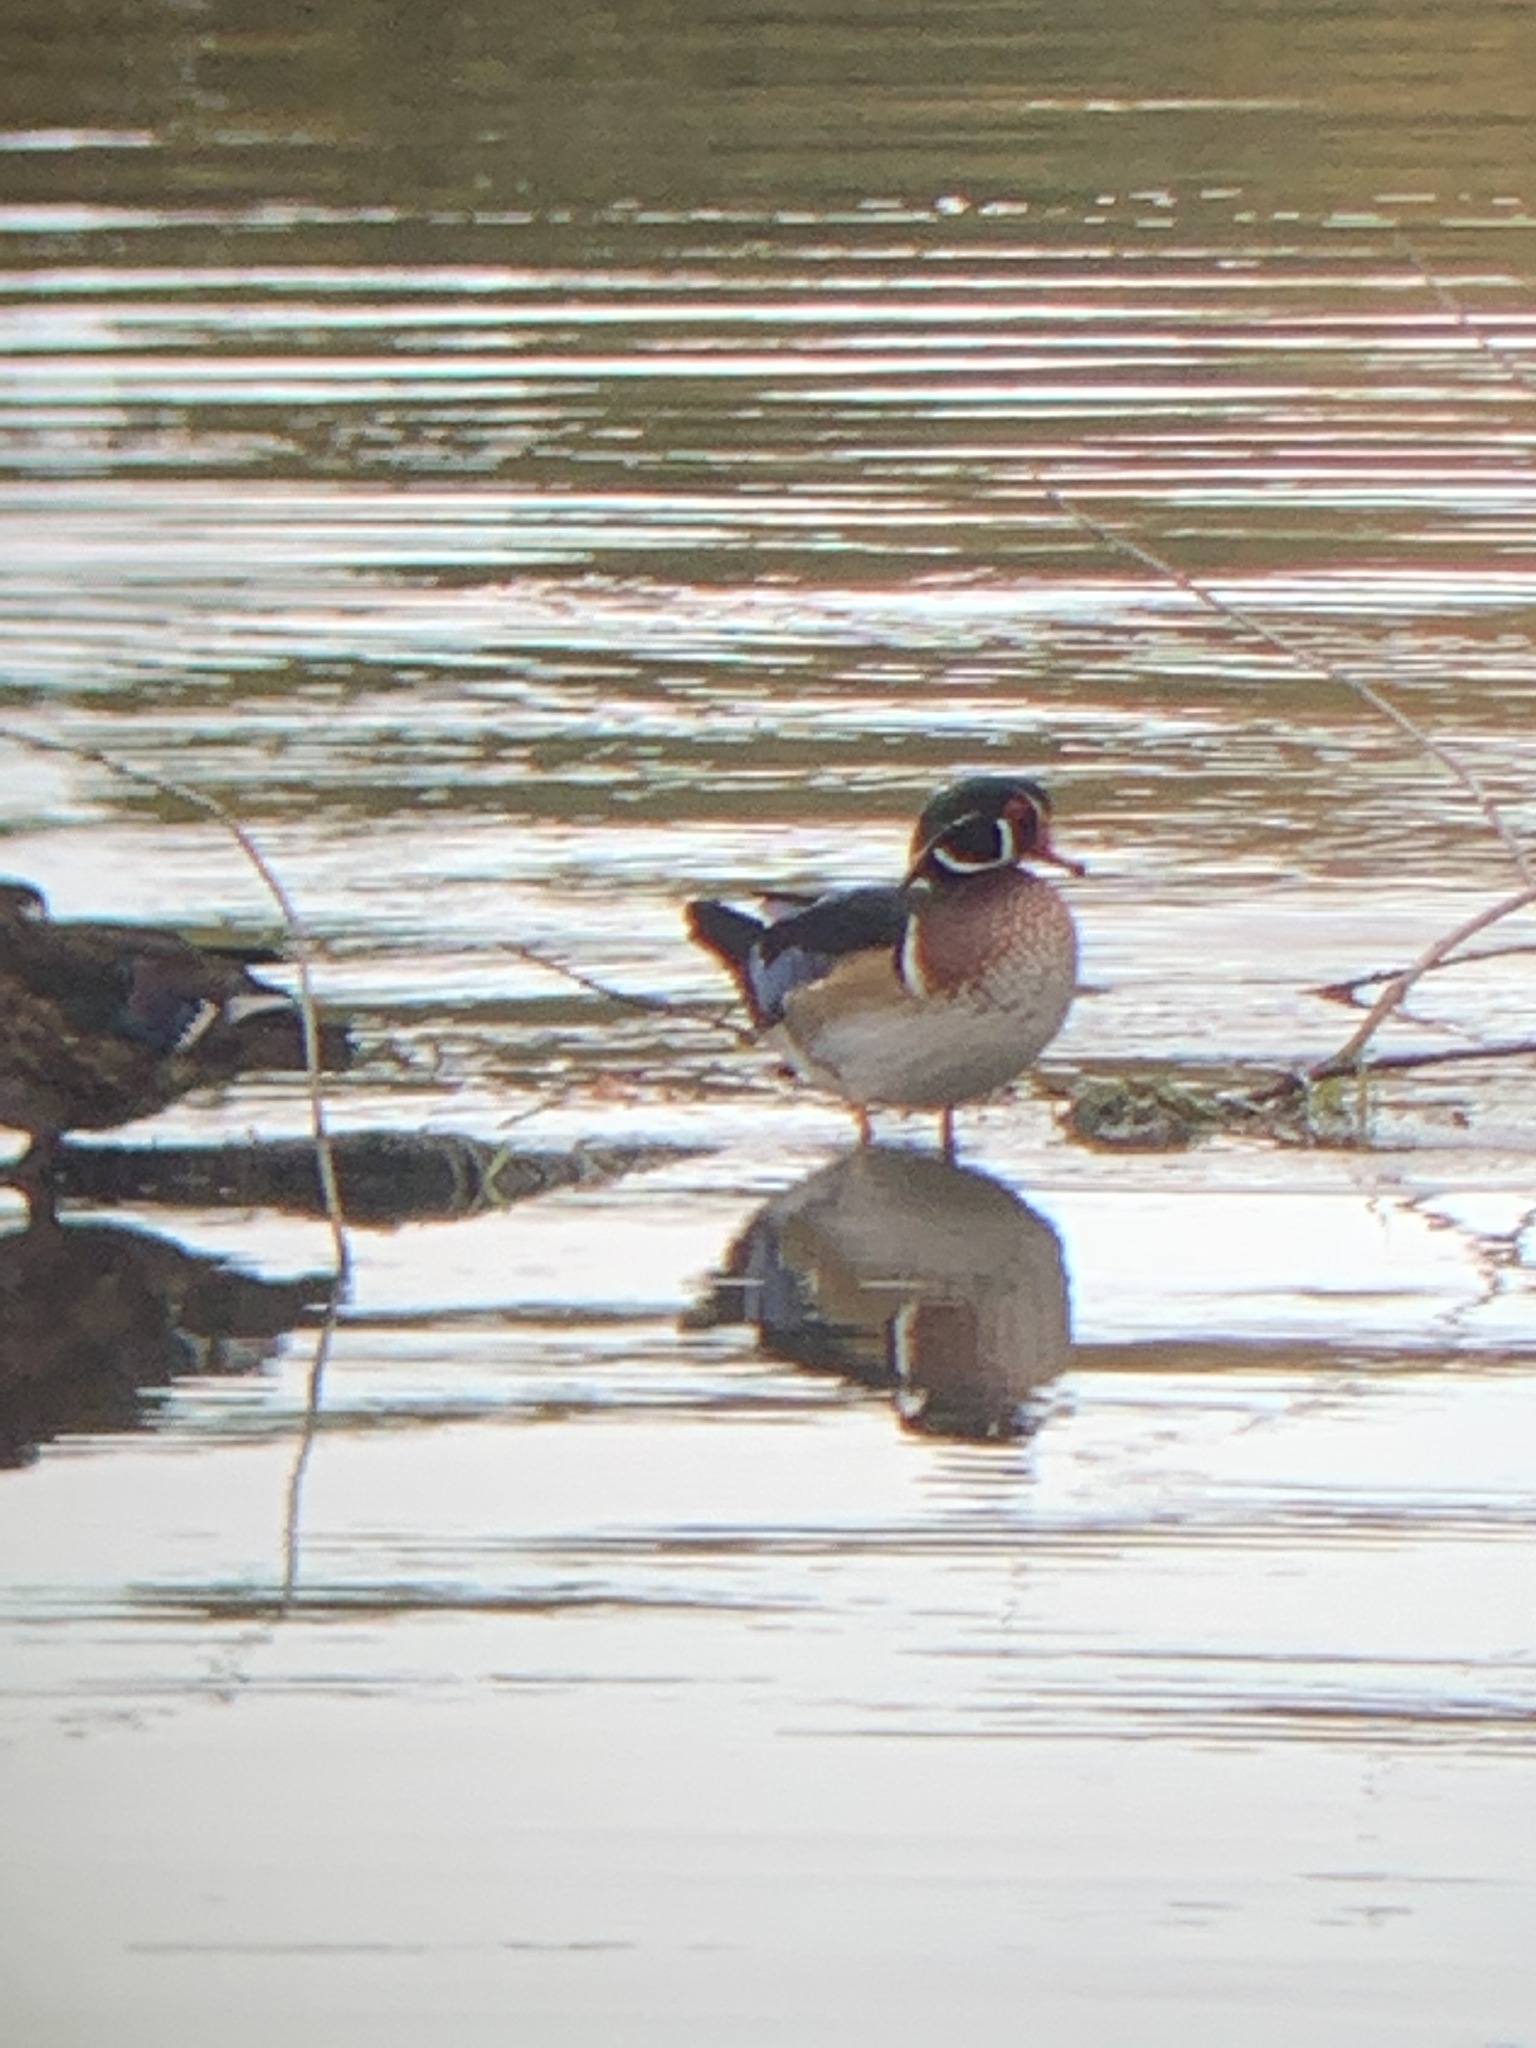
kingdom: Animalia
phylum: Chordata
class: Aves
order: Anseriformes
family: Anatidae
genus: Aix
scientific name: Aix sponsa
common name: Wood duck
